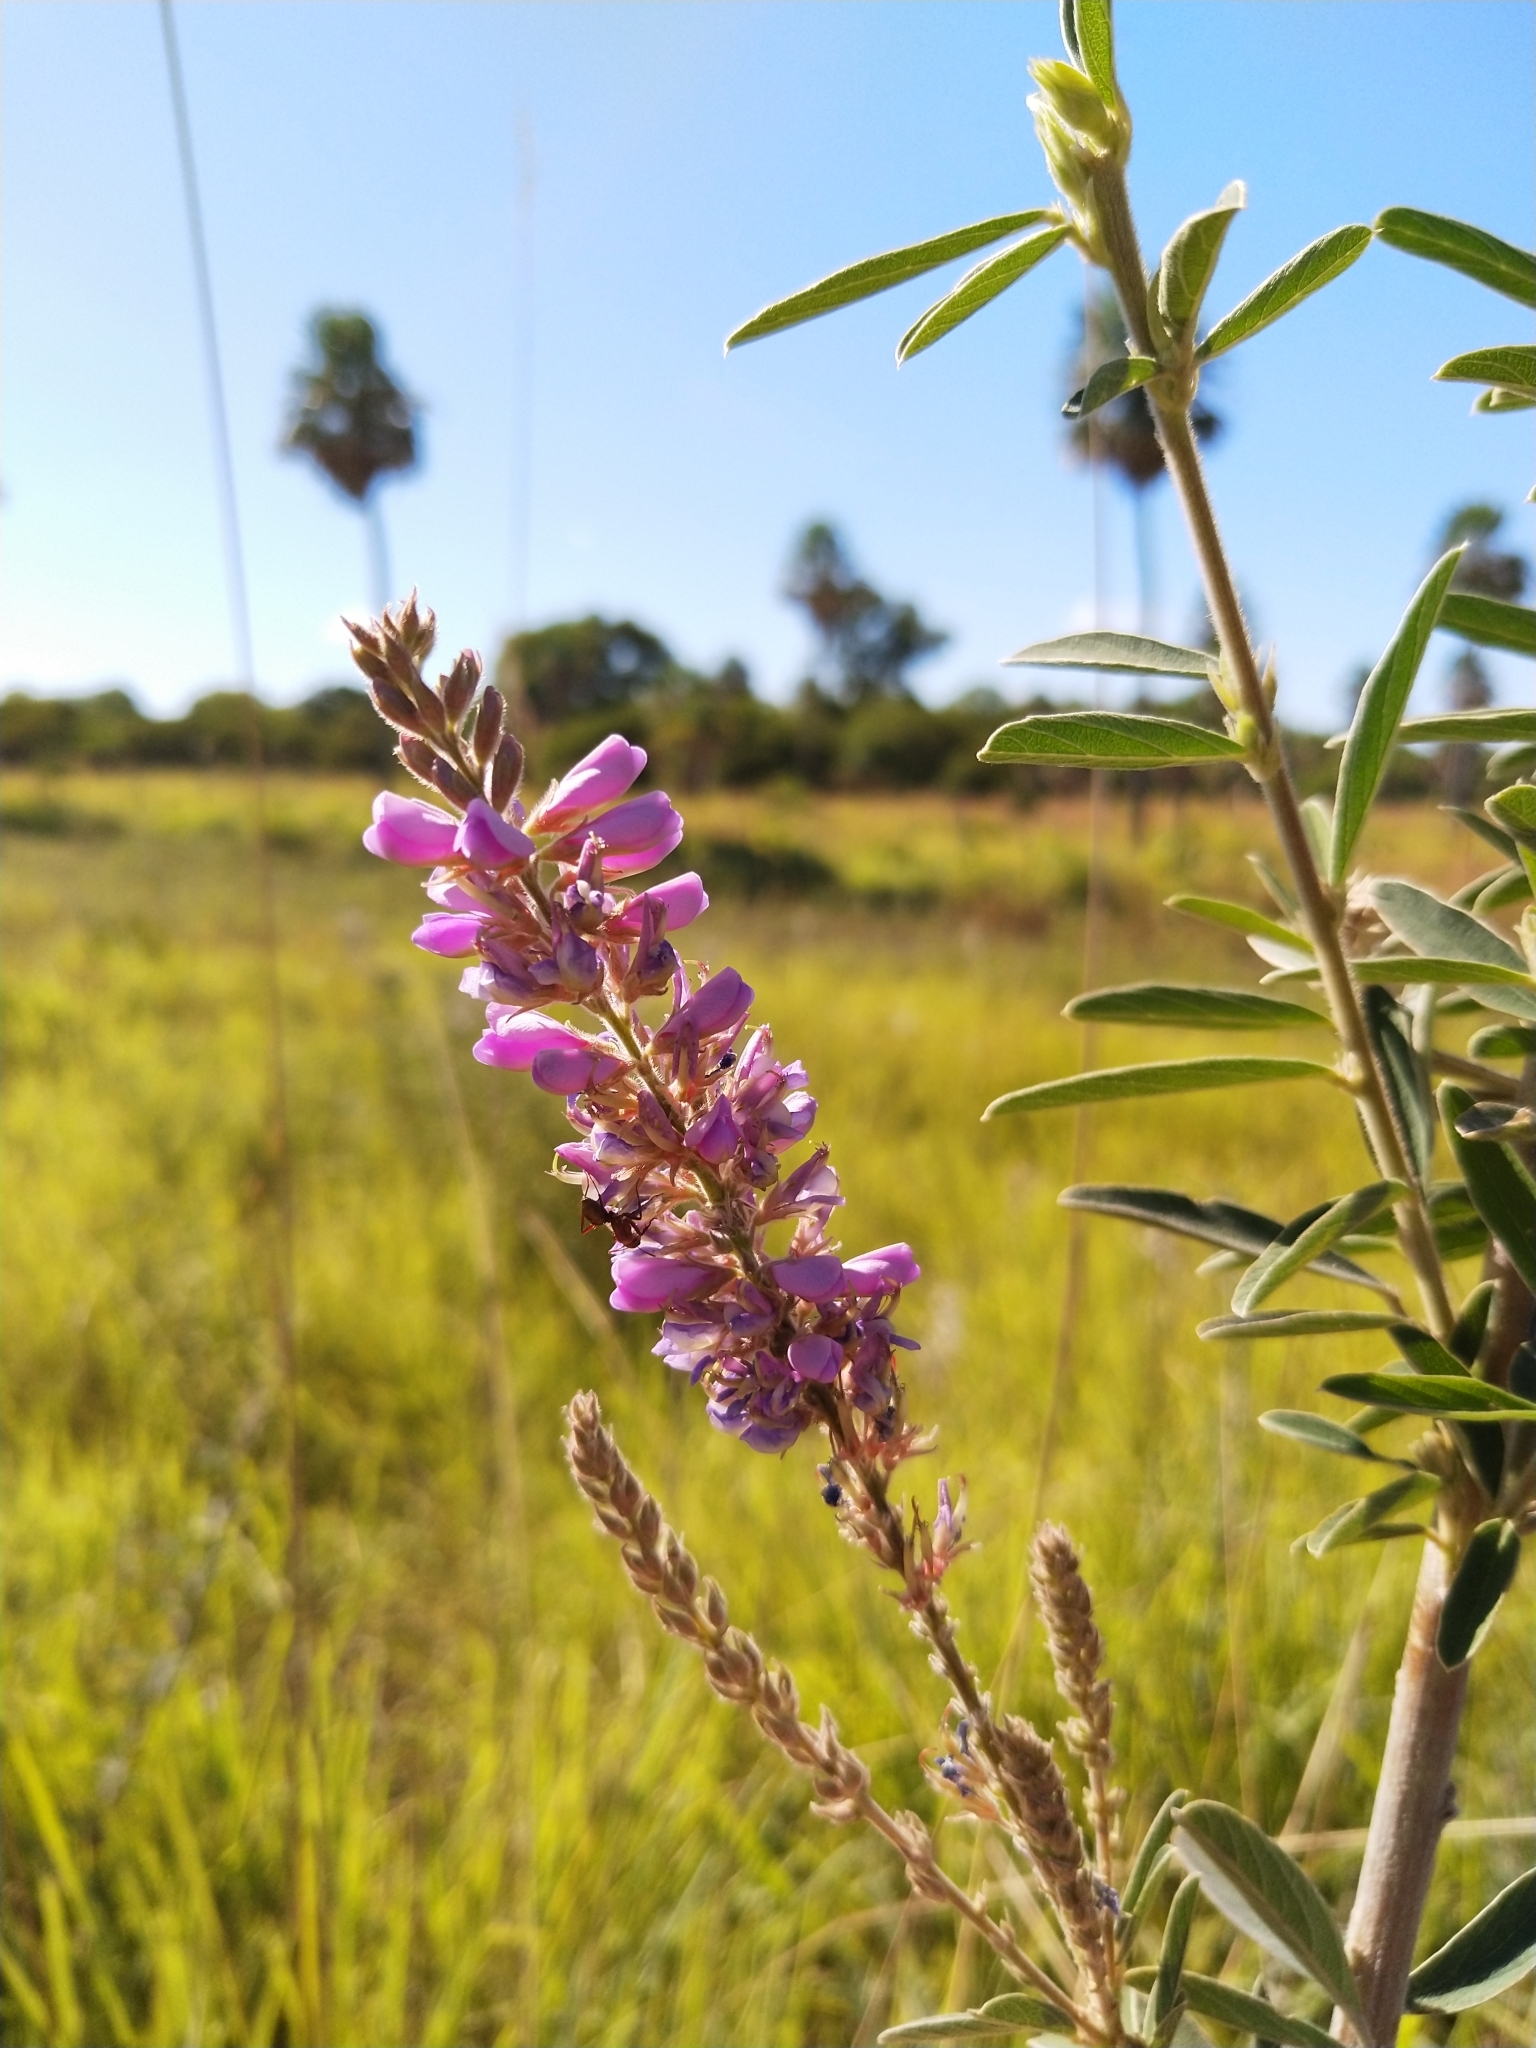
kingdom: Plantae
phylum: Tracheophyta
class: Magnoliopsida
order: Fabales
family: Fabaceae
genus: Desmodium
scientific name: Desmodium cuneatum
